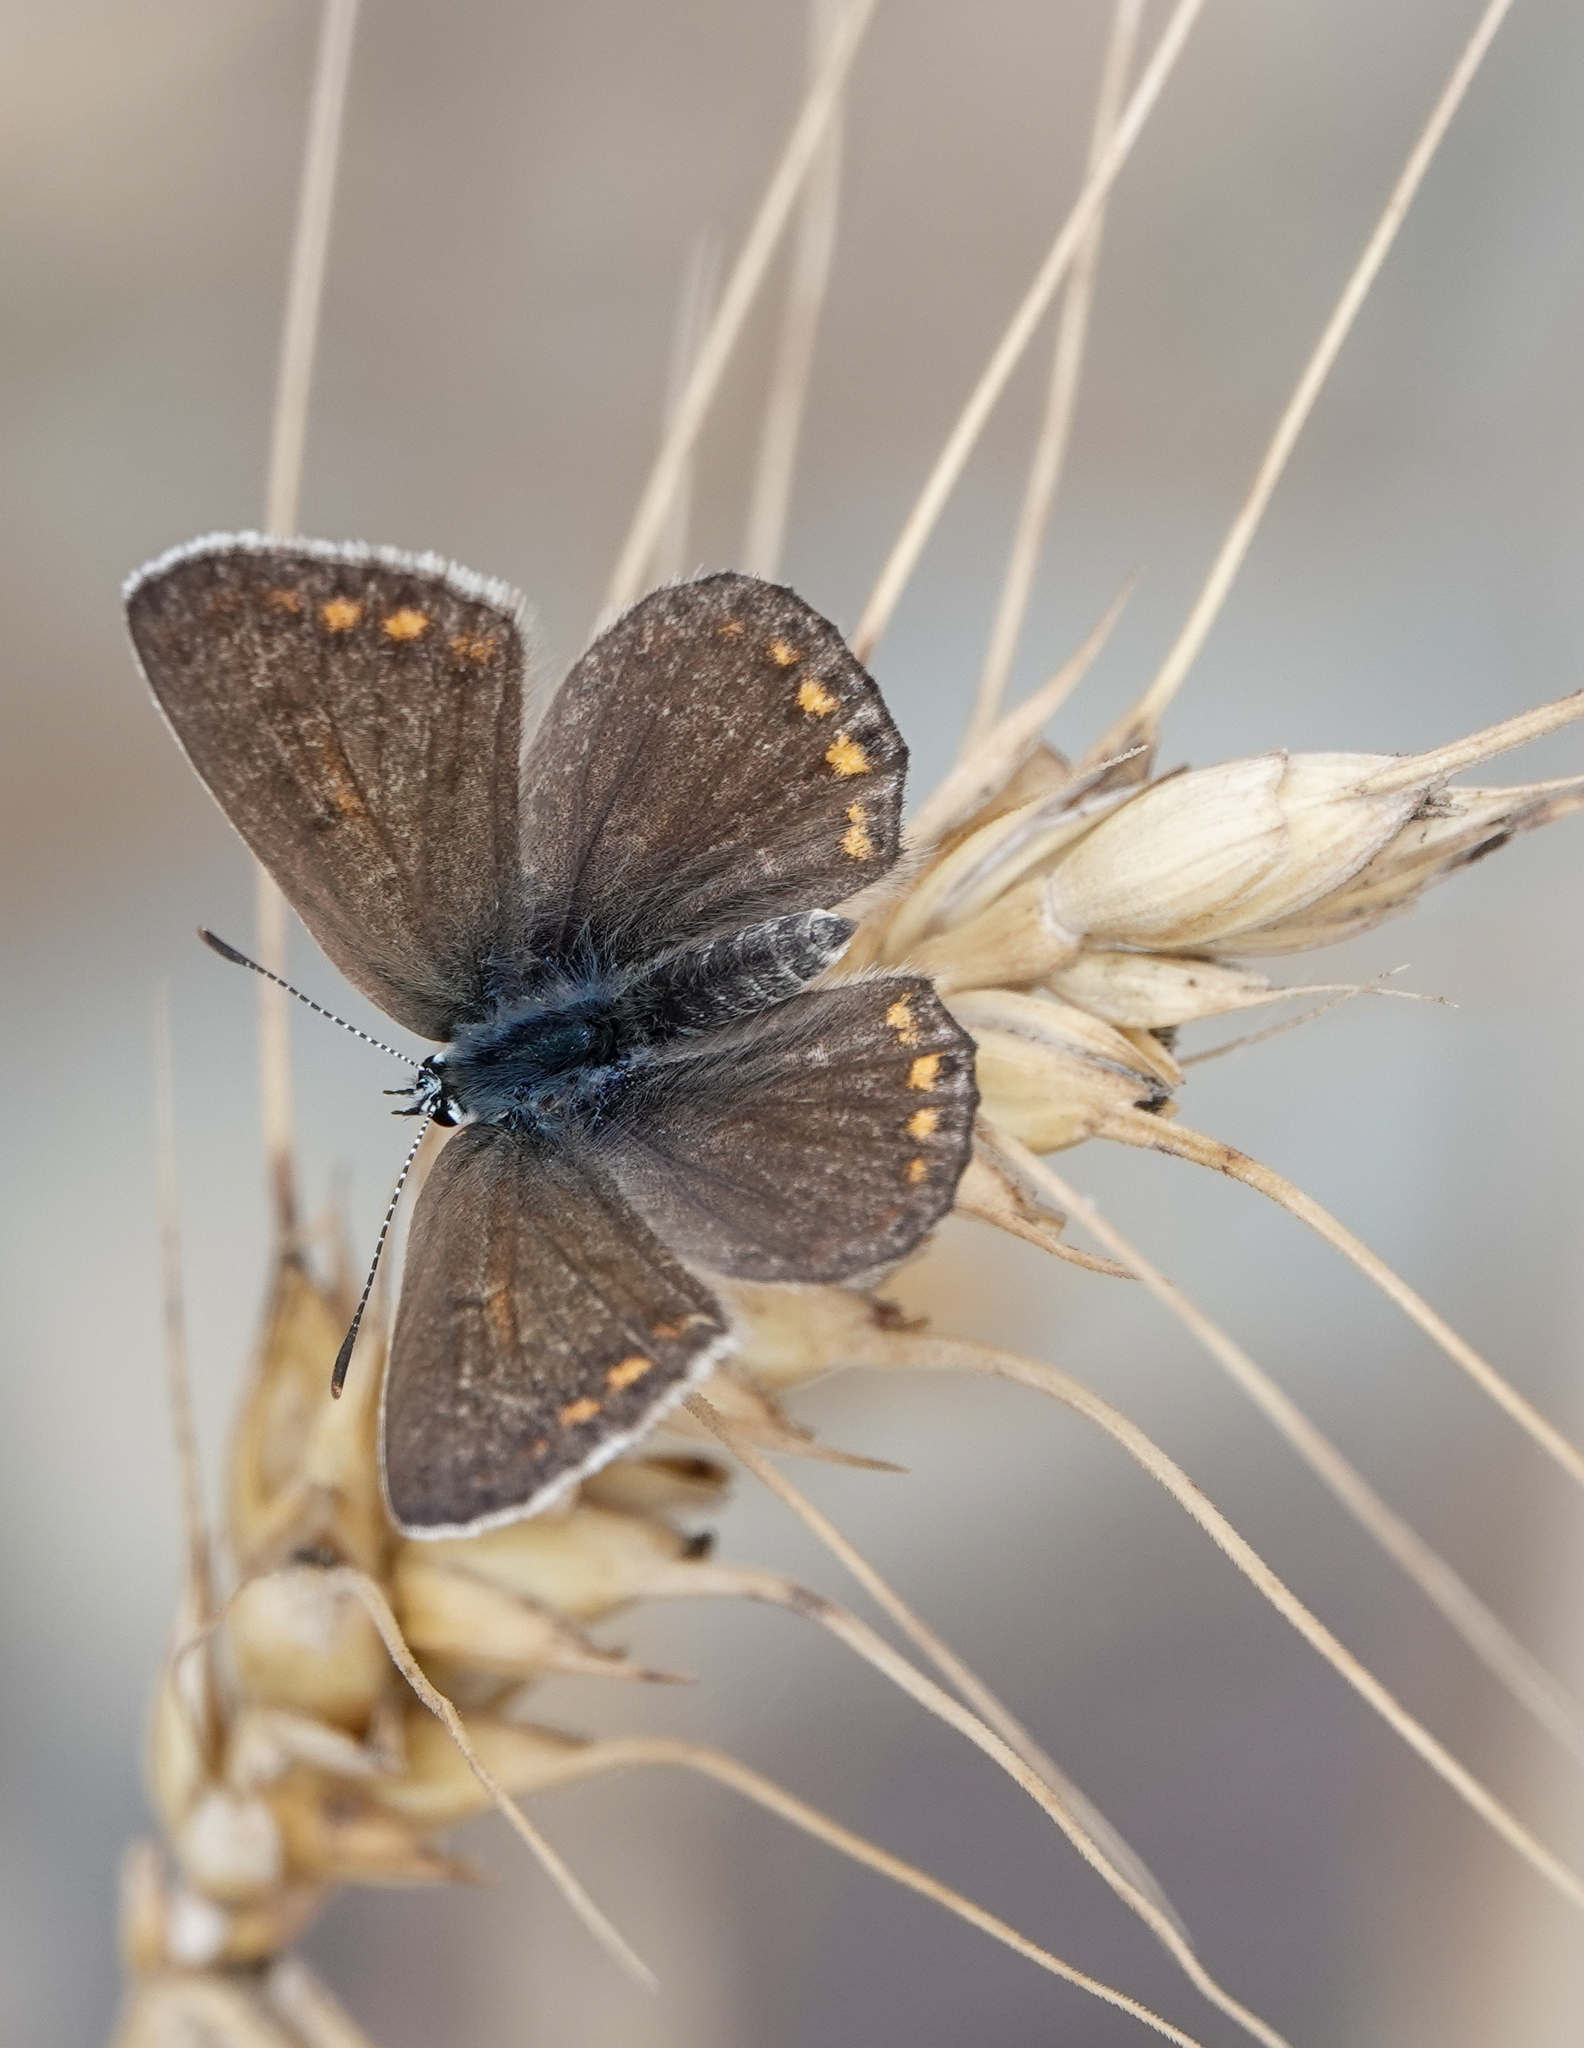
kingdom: Animalia
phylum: Arthropoda
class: Insecta
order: Lepidoptera
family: Lycaenidae
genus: Polyommatus
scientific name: Polyommatus icarus
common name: Common blue
